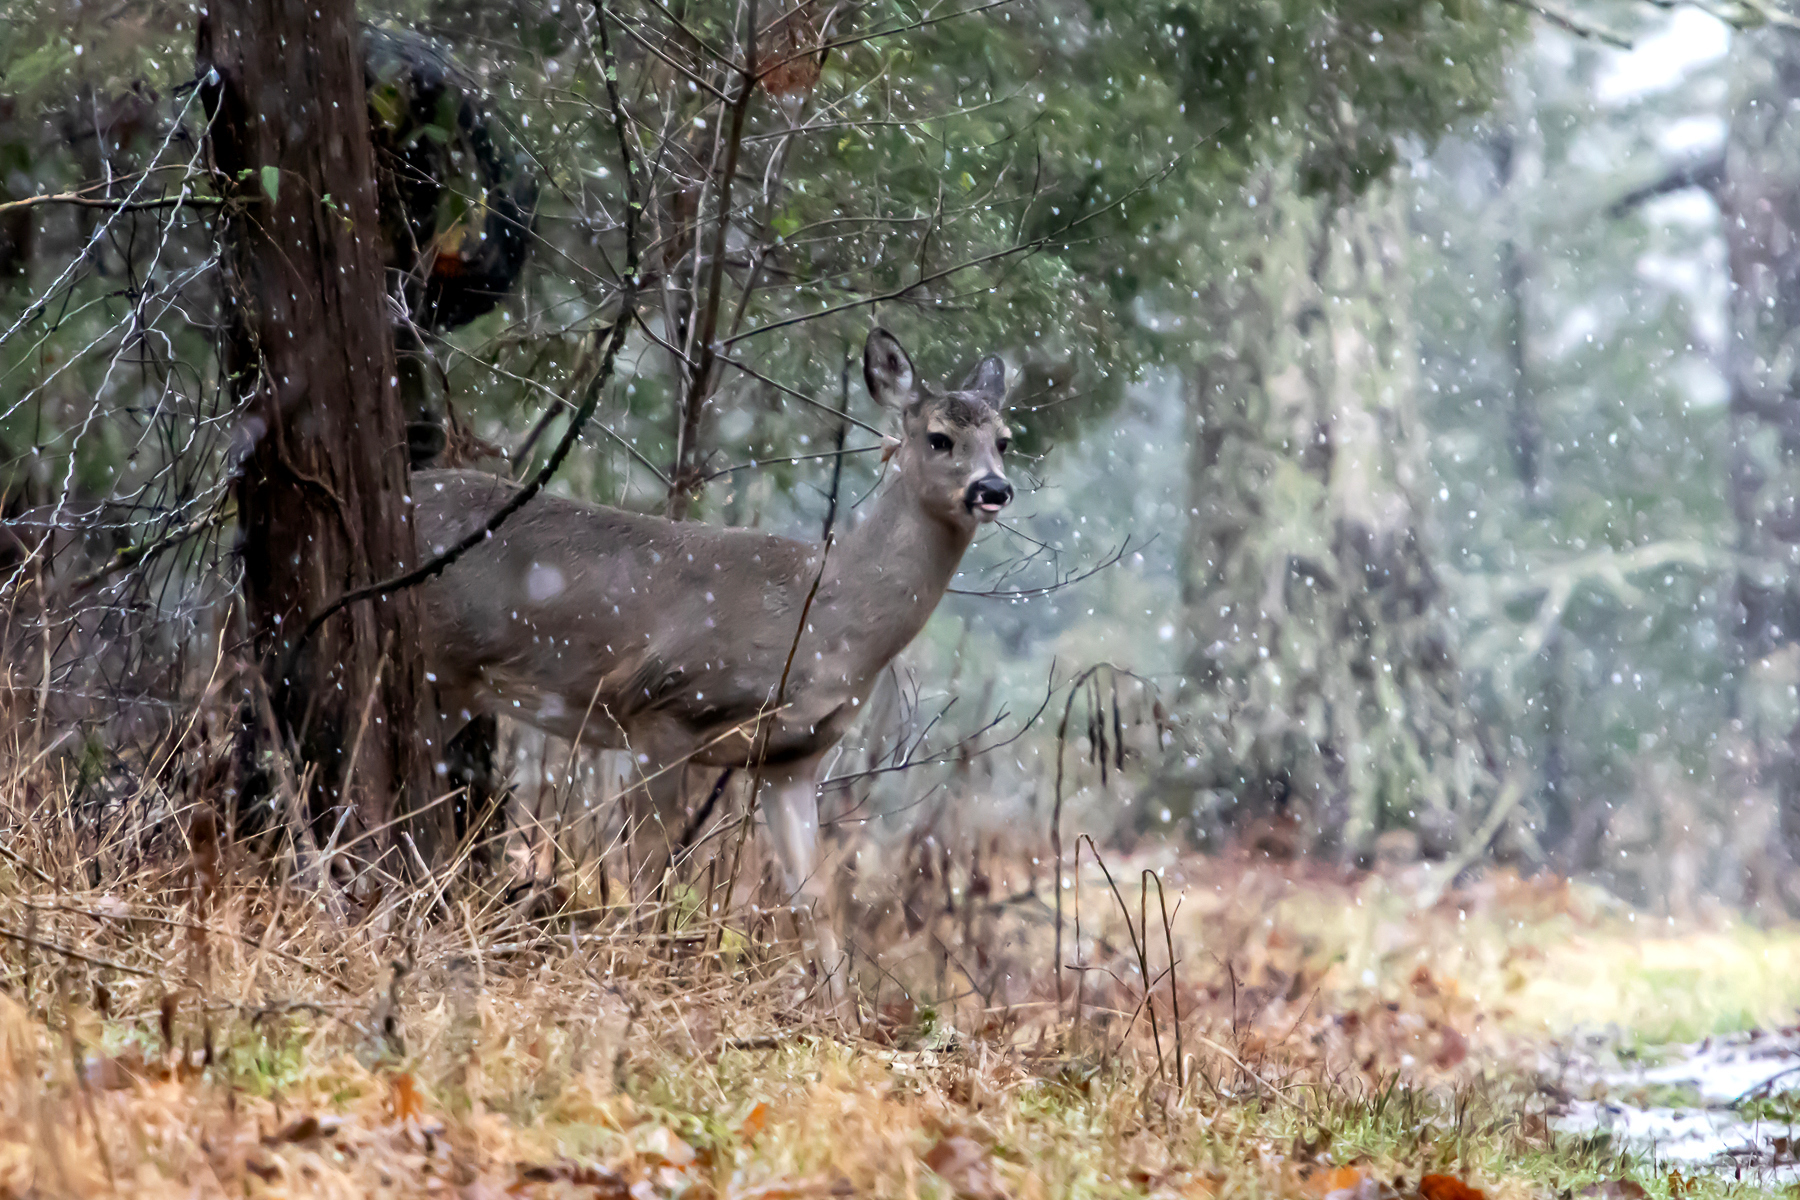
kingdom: Animalia
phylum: Chordata
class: Mammalia
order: Artiodactyla
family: Cervidae
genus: Odocoileus
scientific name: Odocoileus virginianus
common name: White-tailed deer
